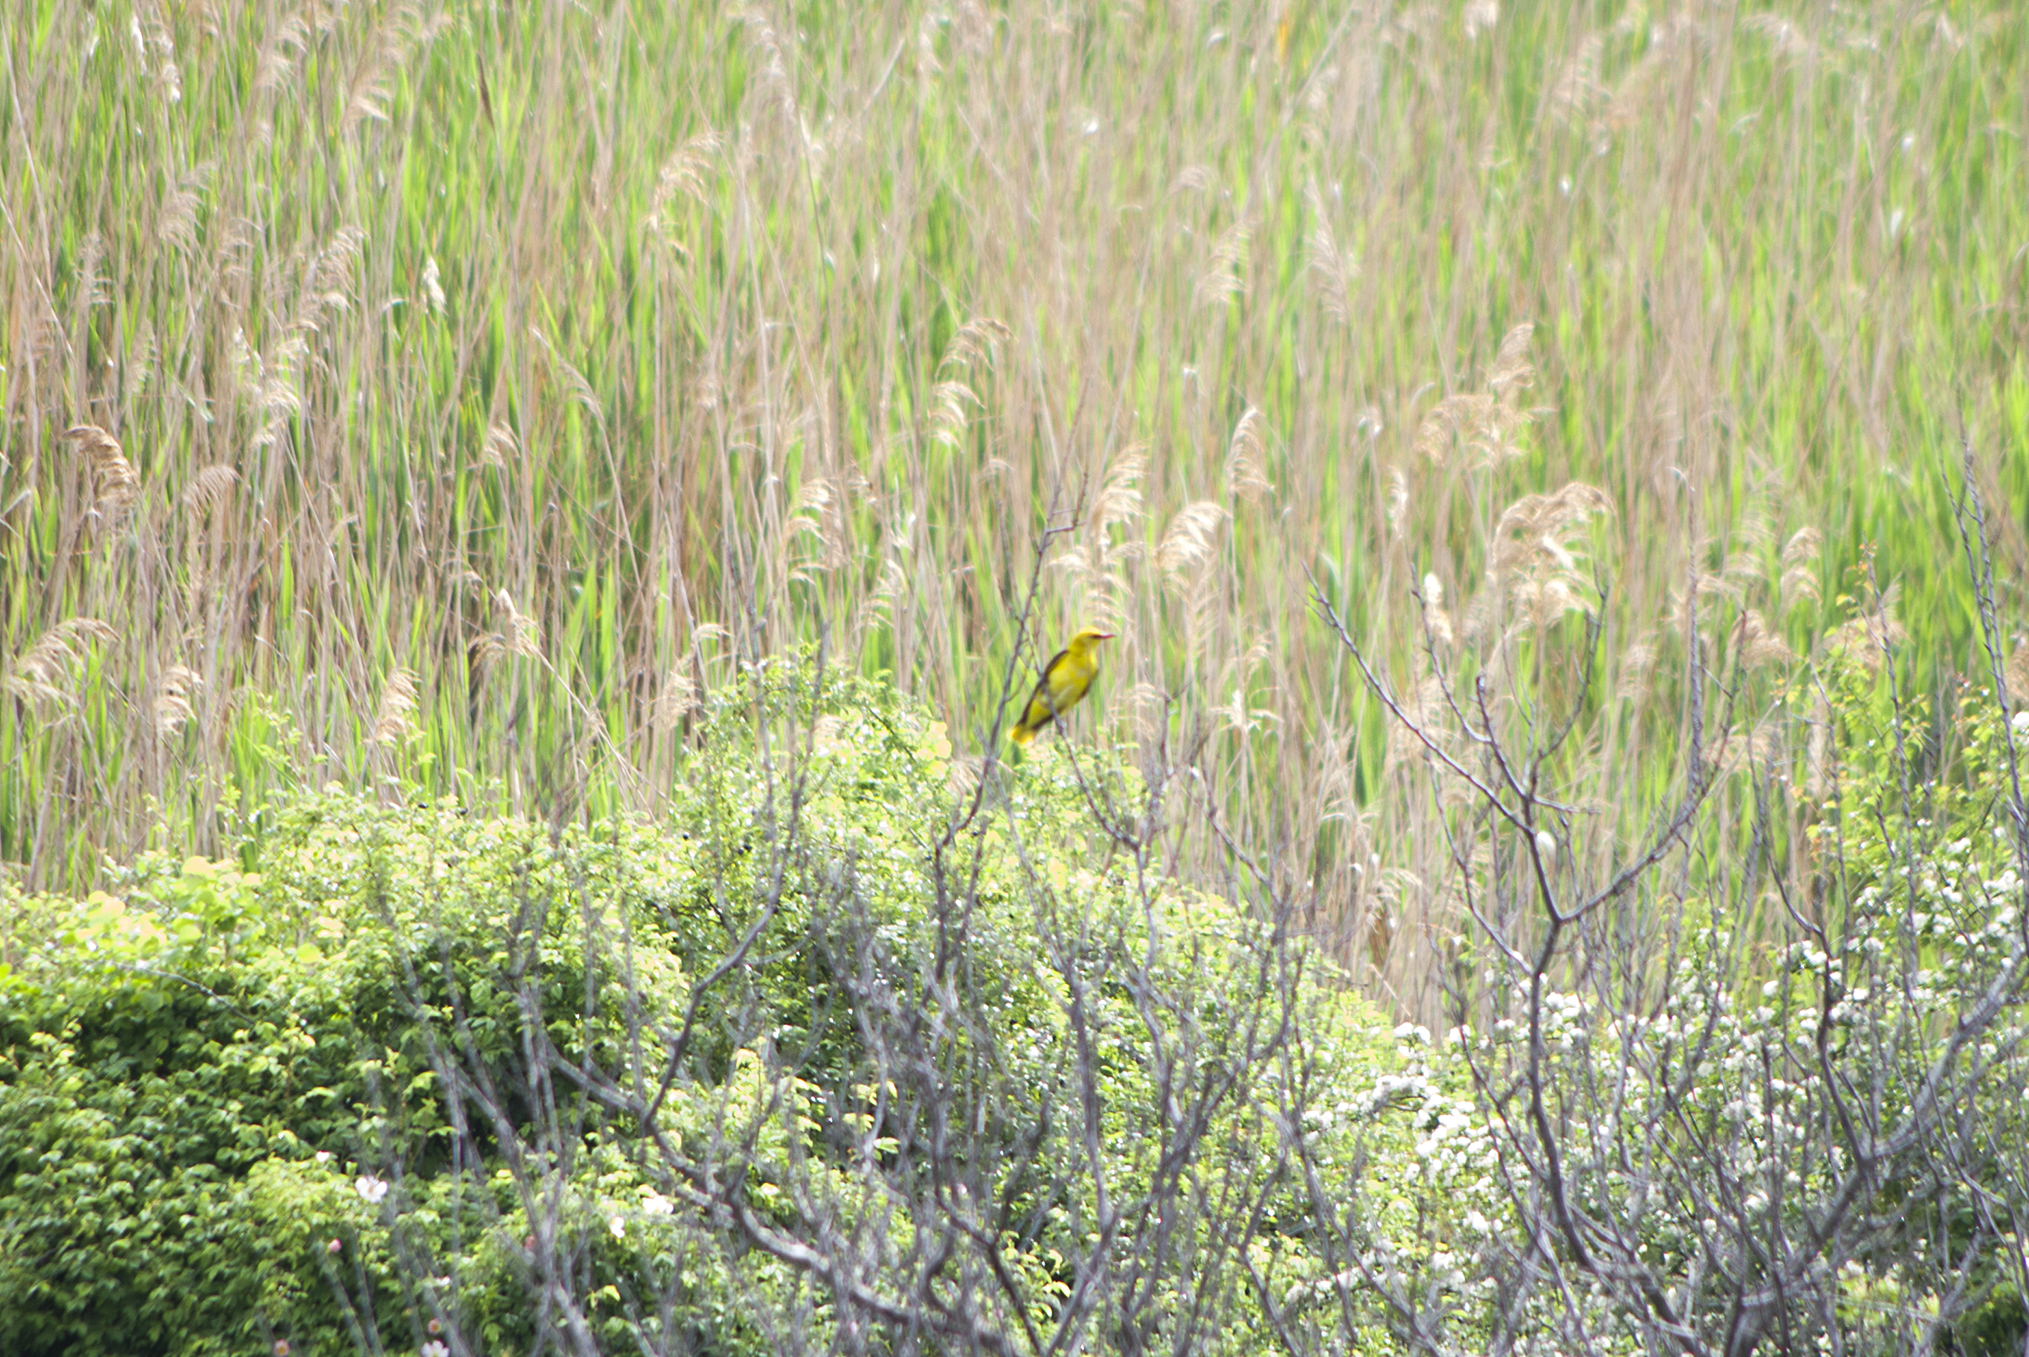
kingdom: Animalia
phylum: Chordata
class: Aves
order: Passeriformes
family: Oriolidae
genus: Oriolus
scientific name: Oriolus oriolus
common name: Eurasian golden oriole
